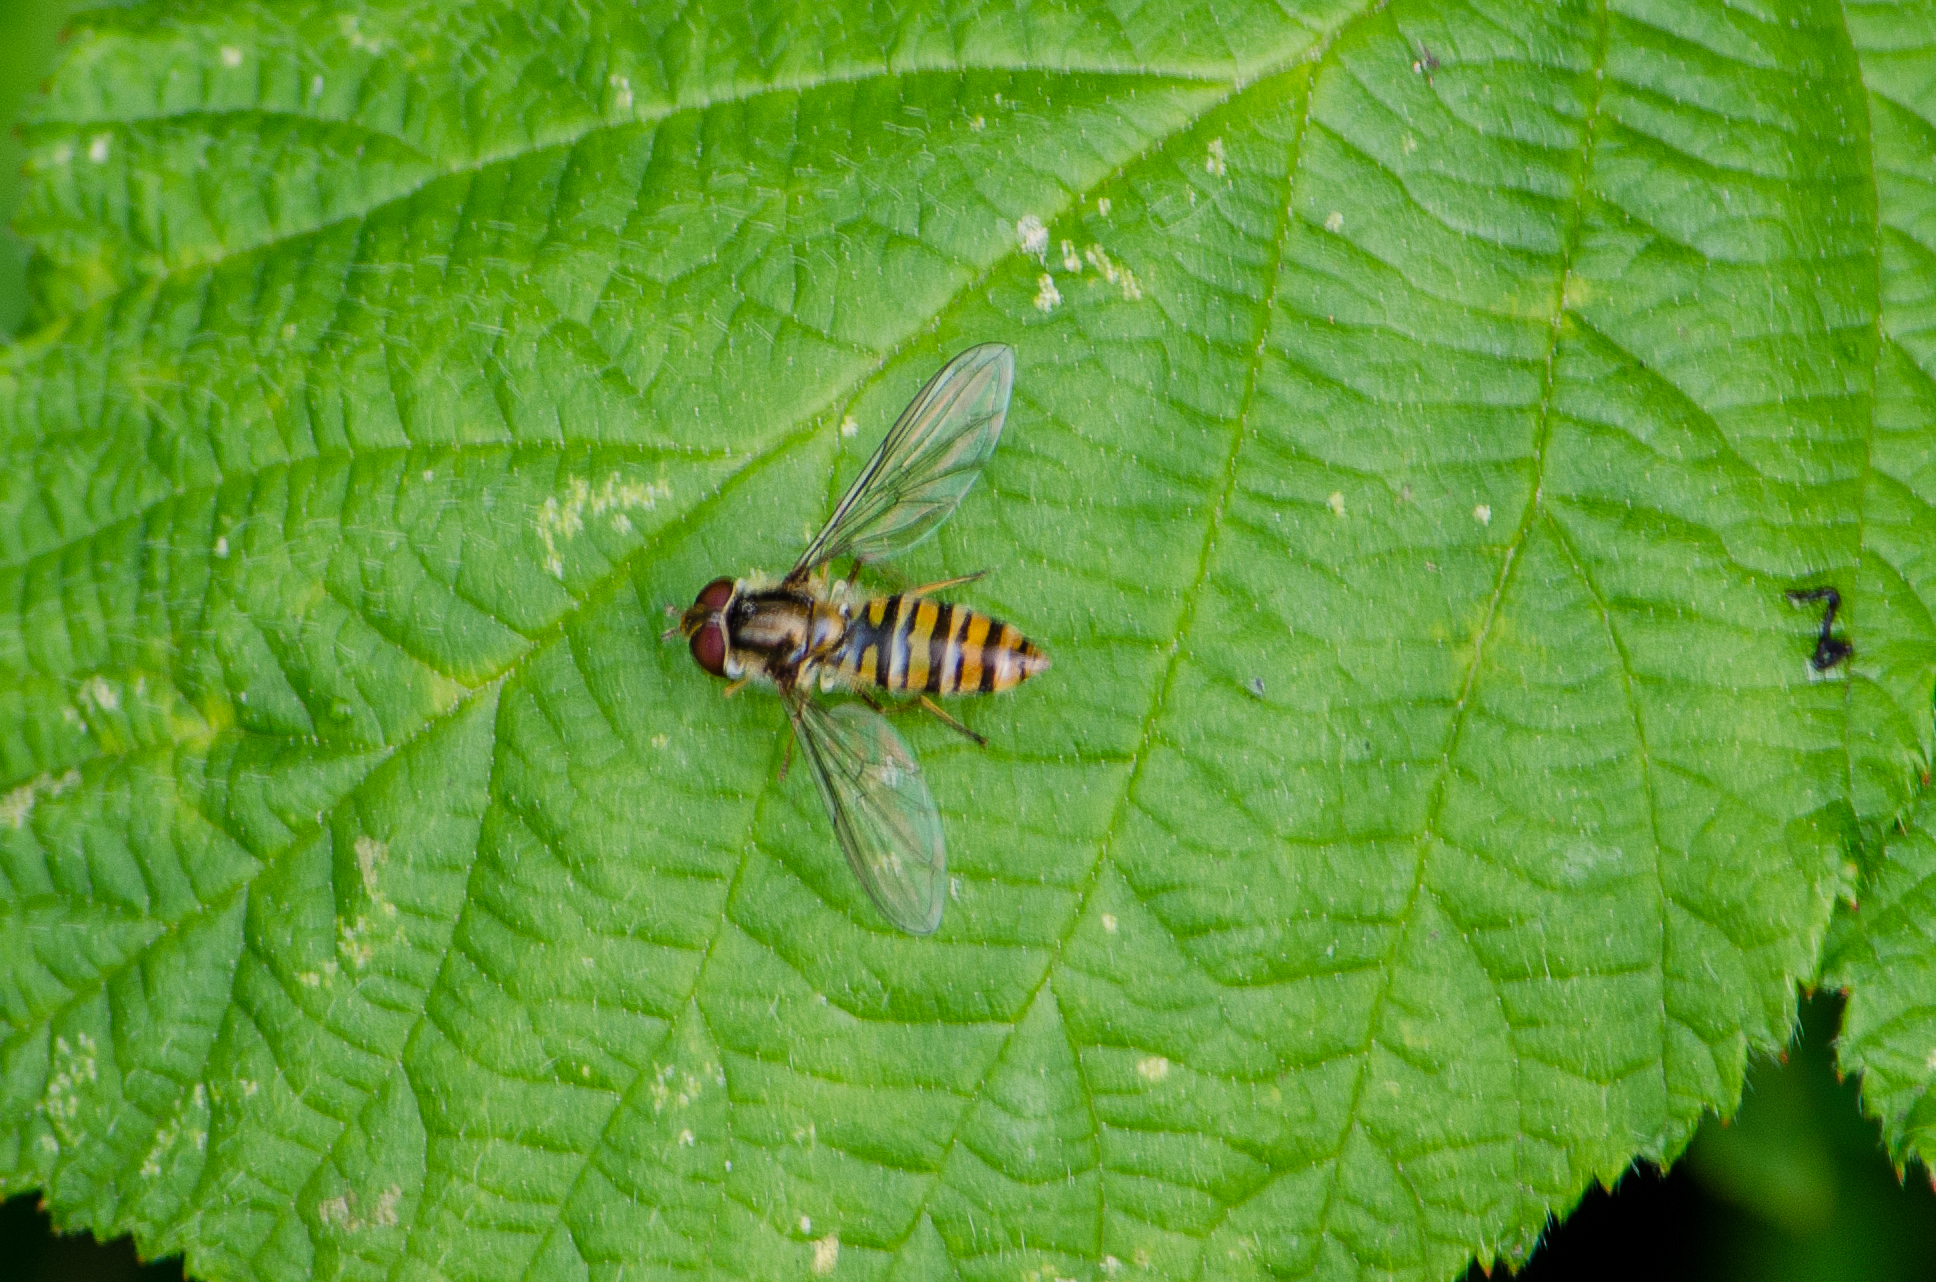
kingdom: Animalia
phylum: Arthropoda
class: Insecta
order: Diptera
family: Syrphidae
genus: Episyrphus
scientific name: Episyrphus balteatus
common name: Marmalade hoverfly
